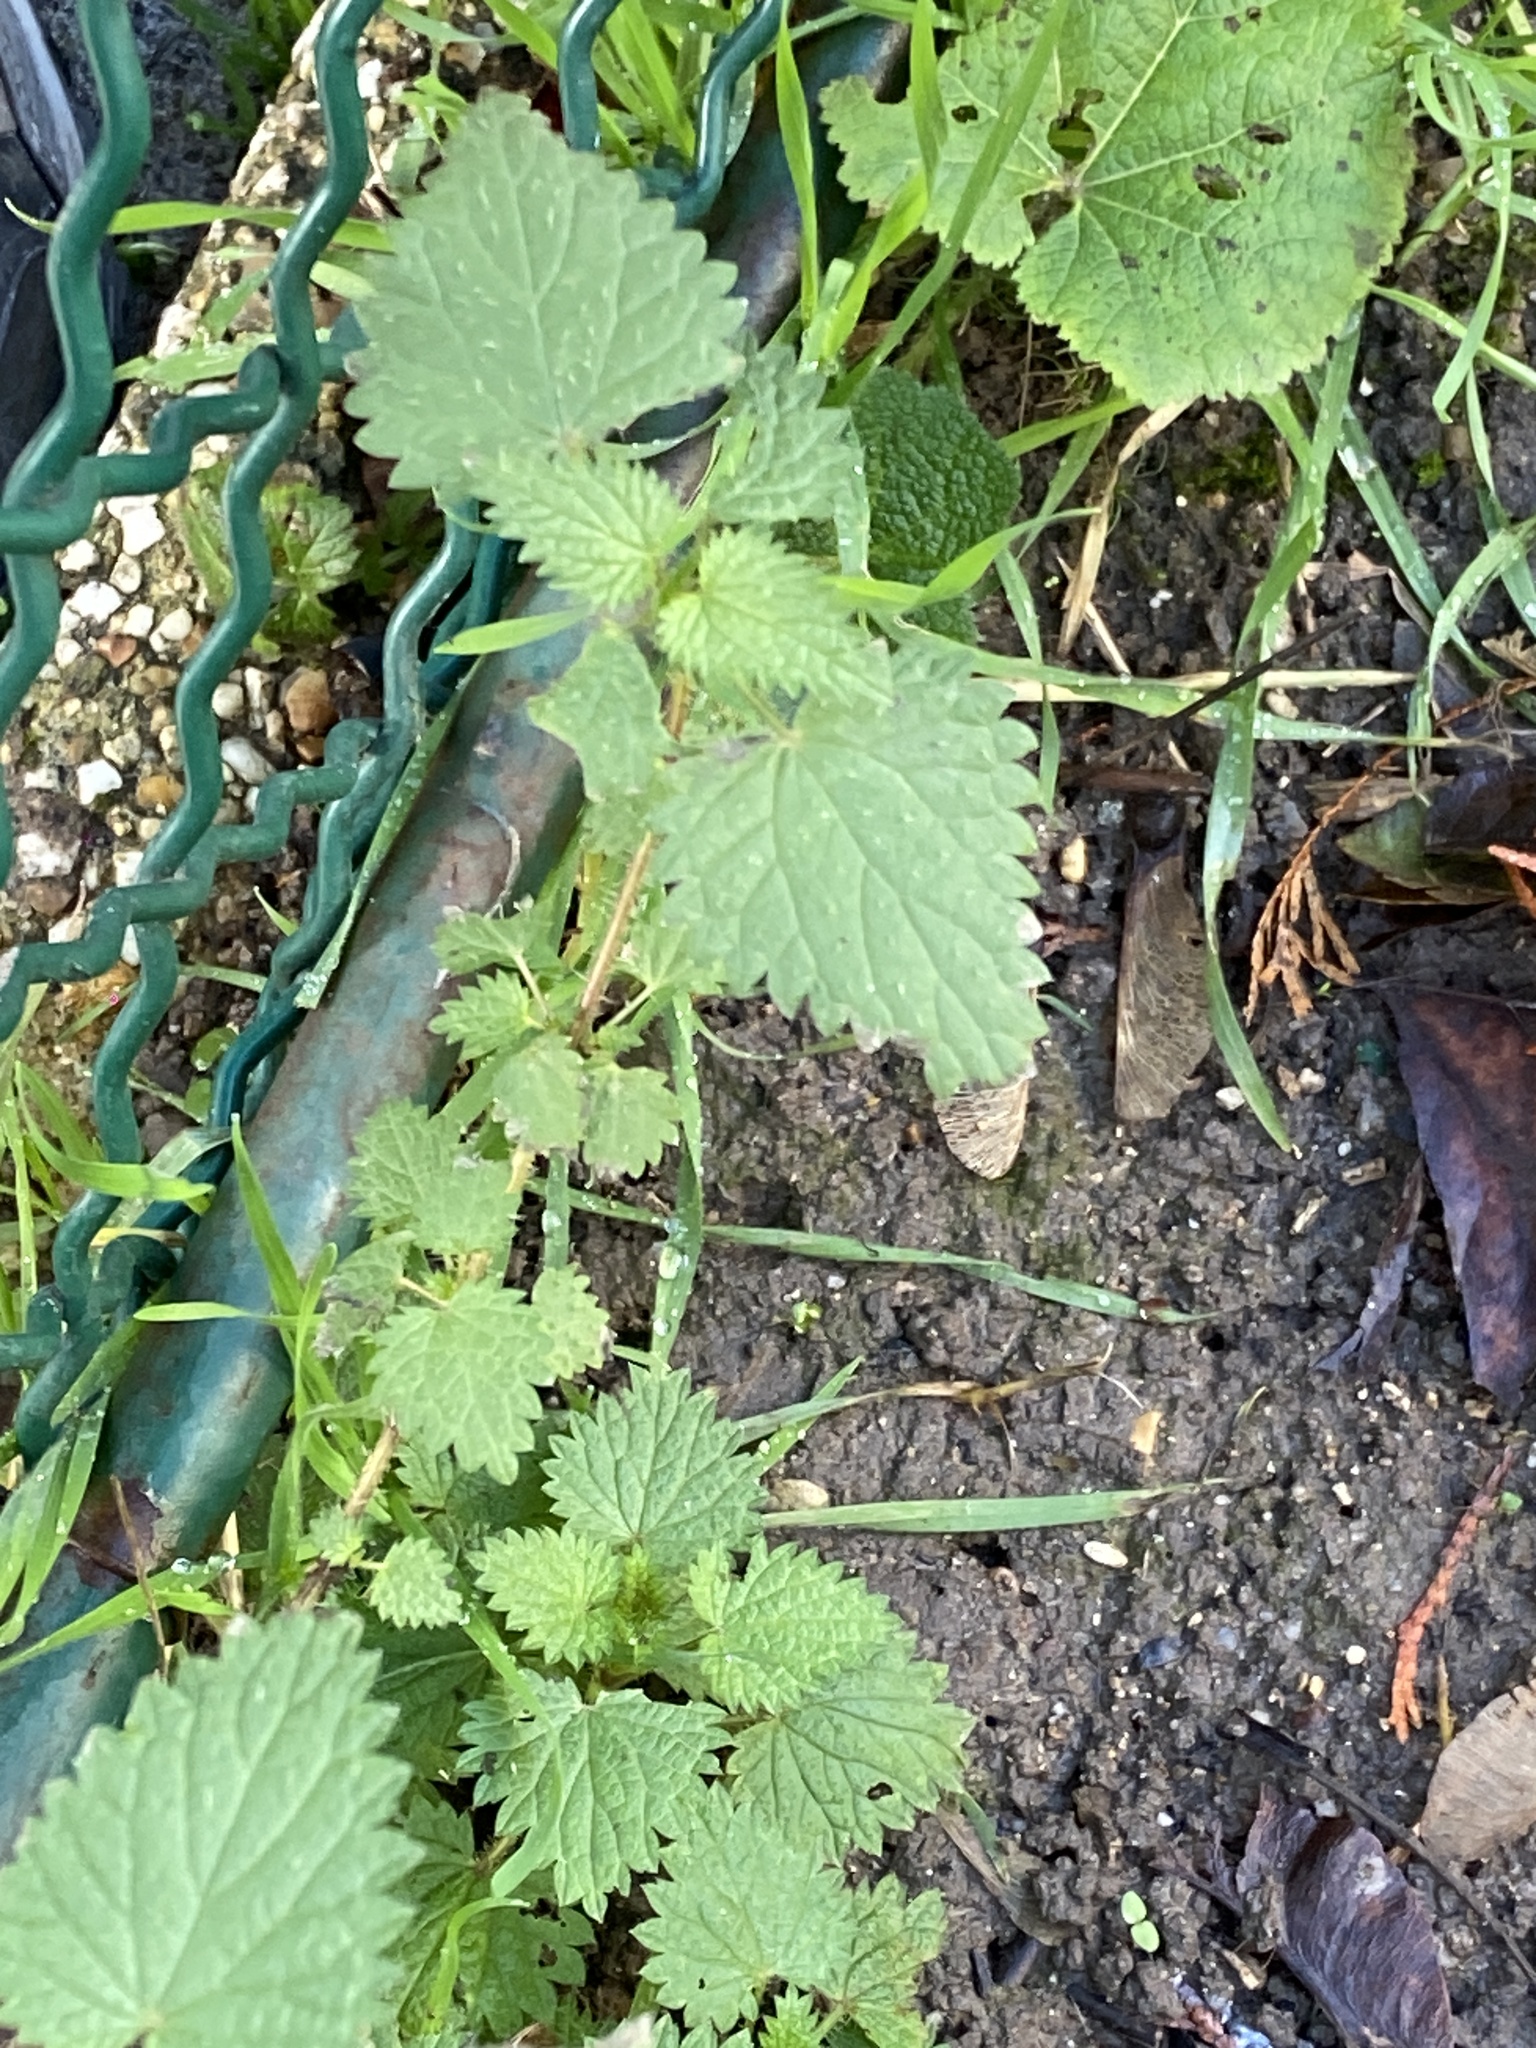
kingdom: Plantae
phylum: Tracheophyta
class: Magnoliopsida
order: Rosales
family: Urticaceae
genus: Urtica
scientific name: Urtica dioica
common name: Common nettle
